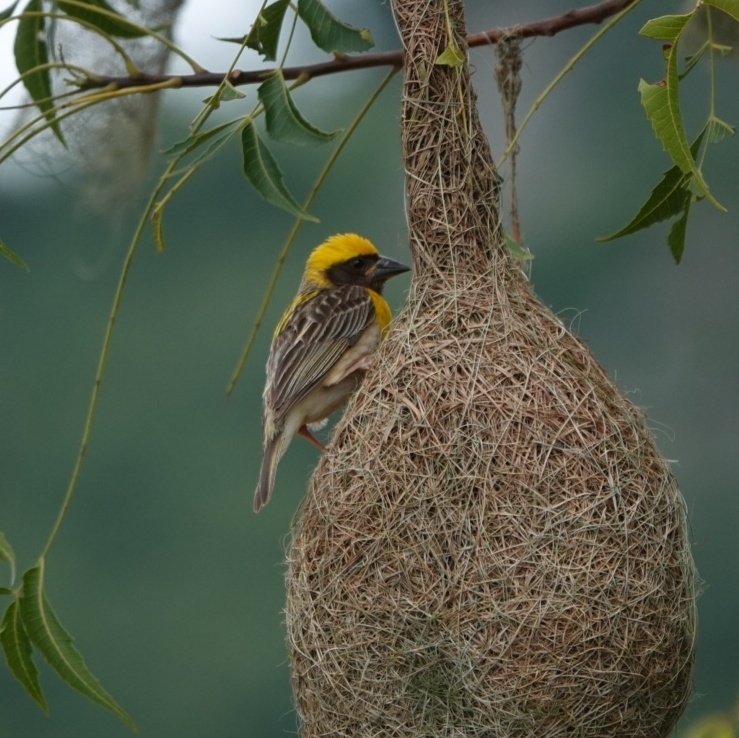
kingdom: Animalia
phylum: Chordata
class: Aves
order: Passeriformes
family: Ploceidae
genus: Ploceus
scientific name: Ploceus philippinus
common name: Baya weaver
